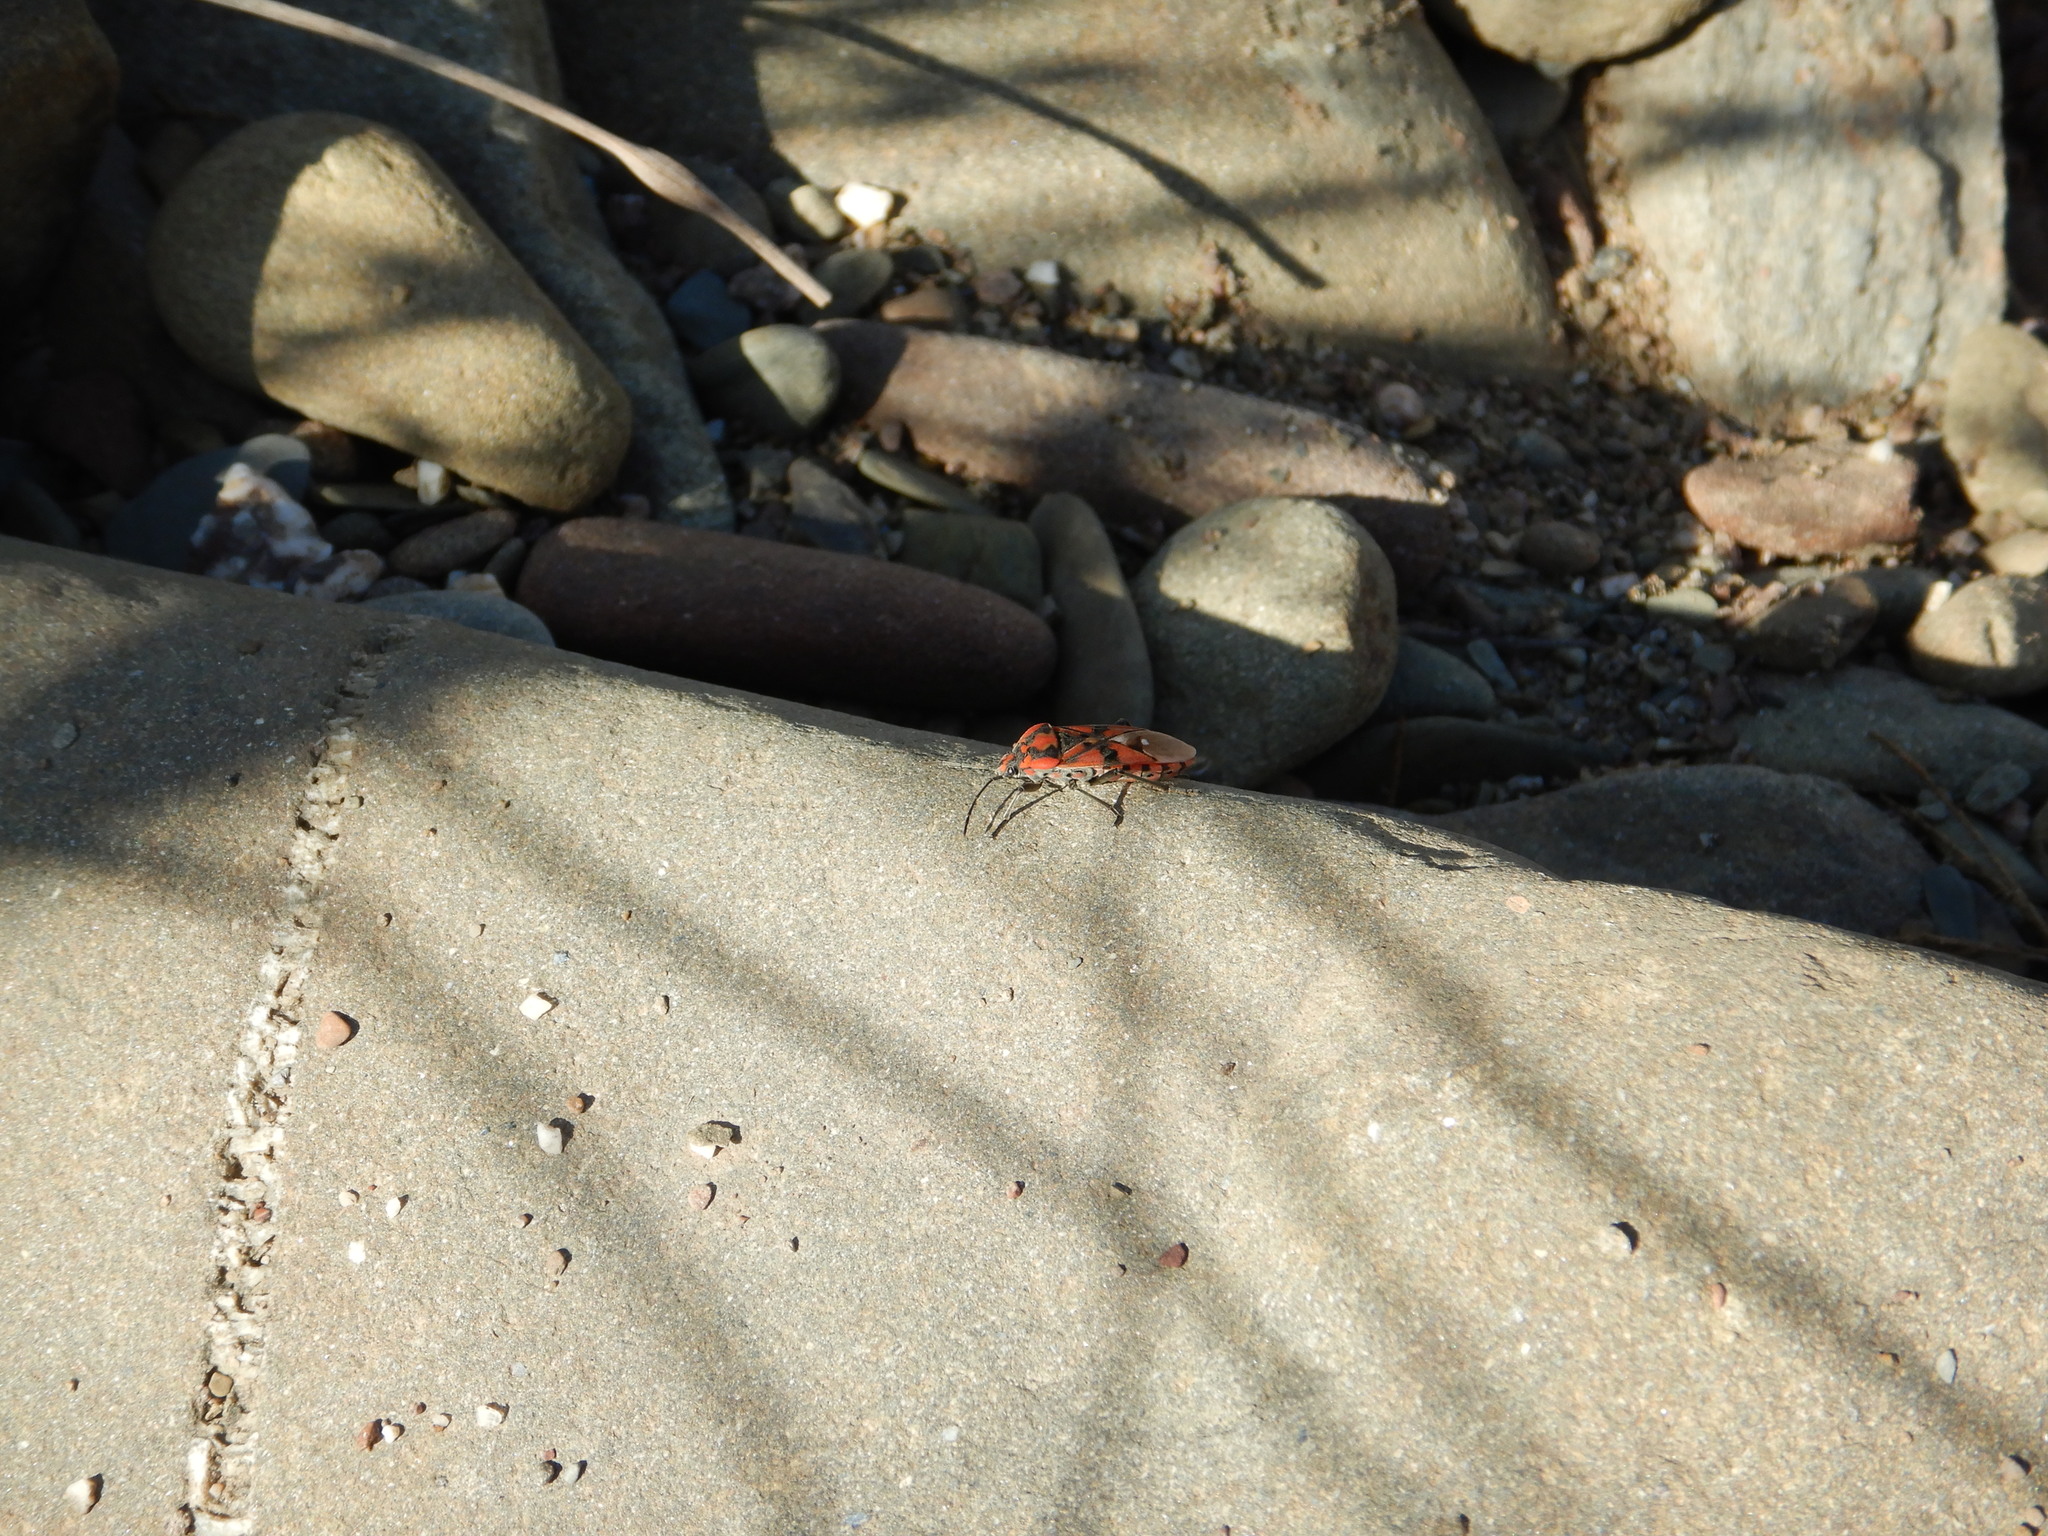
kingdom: Animalia
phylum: Arthropoda
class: Insecta
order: Hemiptera
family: Lygaeidae
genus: Spilostethus
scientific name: Spilostethus pandurus
